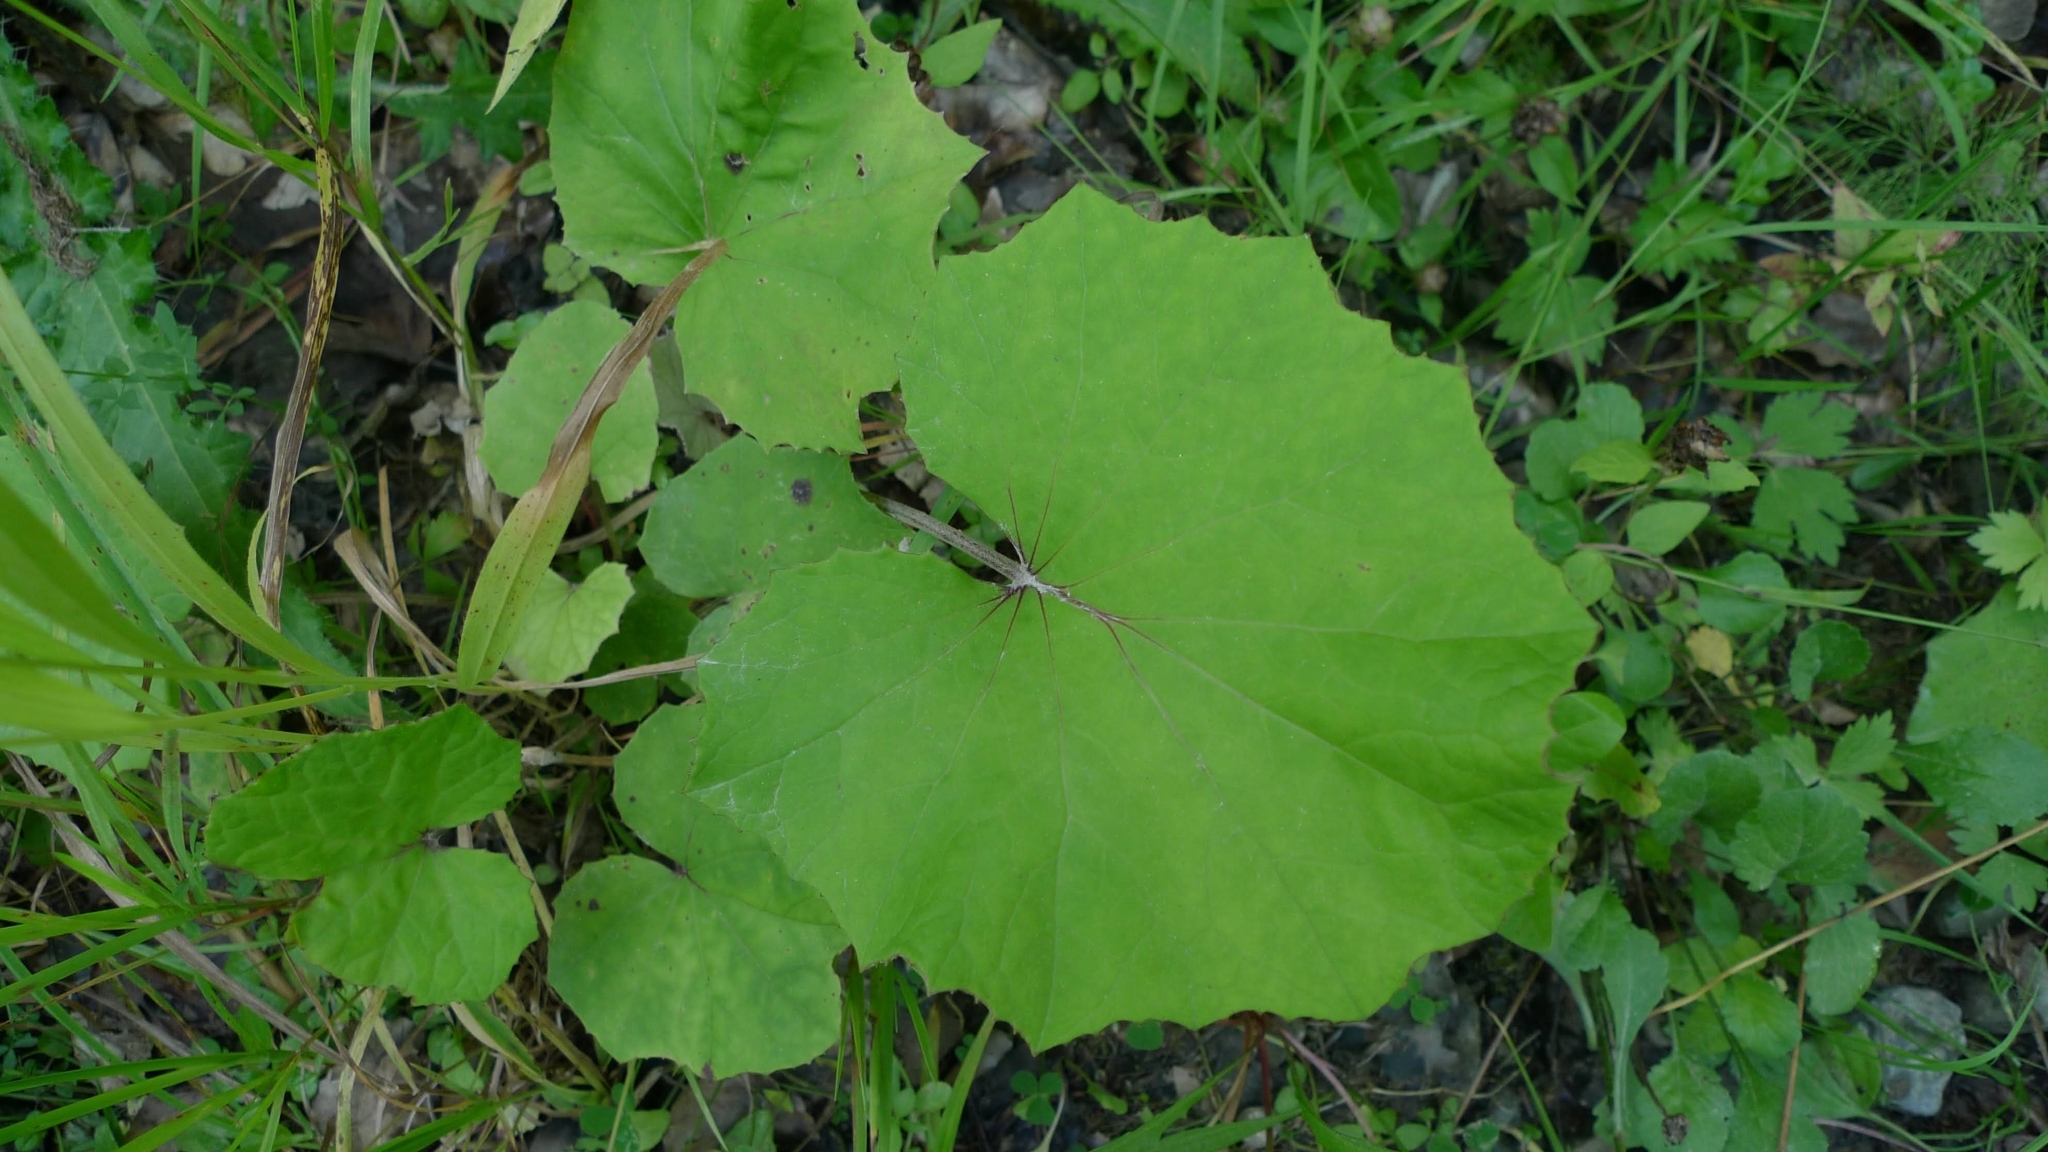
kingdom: Plantae
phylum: Tracheophyta
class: Magnoliopsida
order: Asterales
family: Asteraceae
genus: Tussilago
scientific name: Tussilago farfara
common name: Coltsfoot
